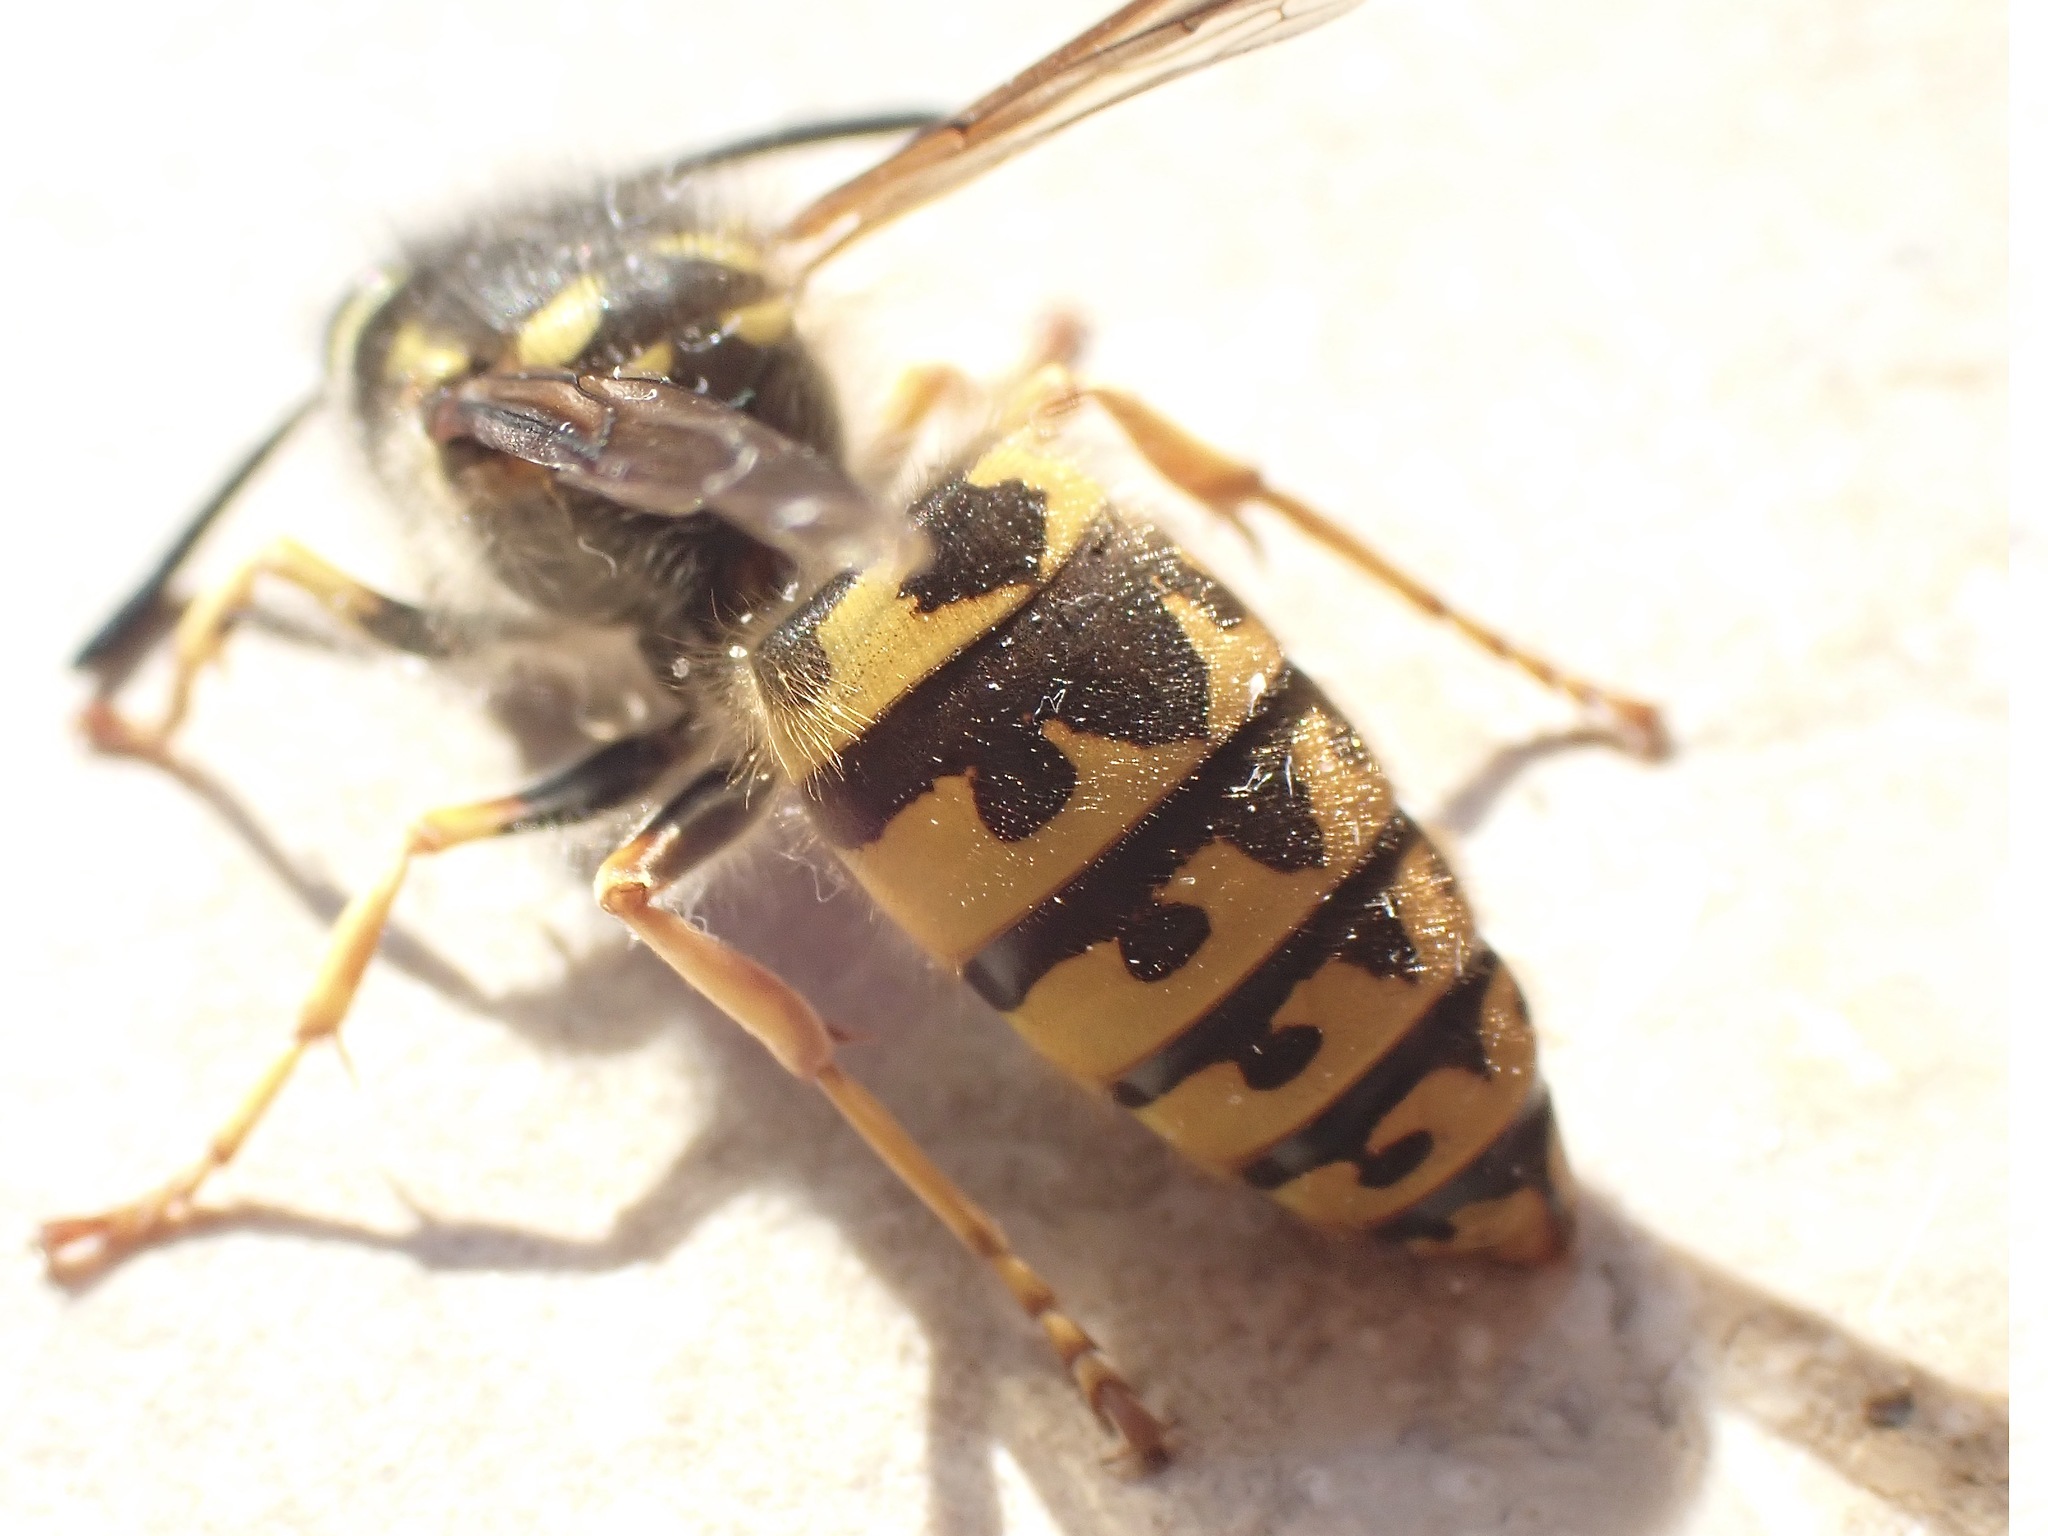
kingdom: Animalia
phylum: Arthropoda
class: Insecta
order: Hymenoptera
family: Vespidae
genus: Vespula
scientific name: Vespula germanica
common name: German wasp
